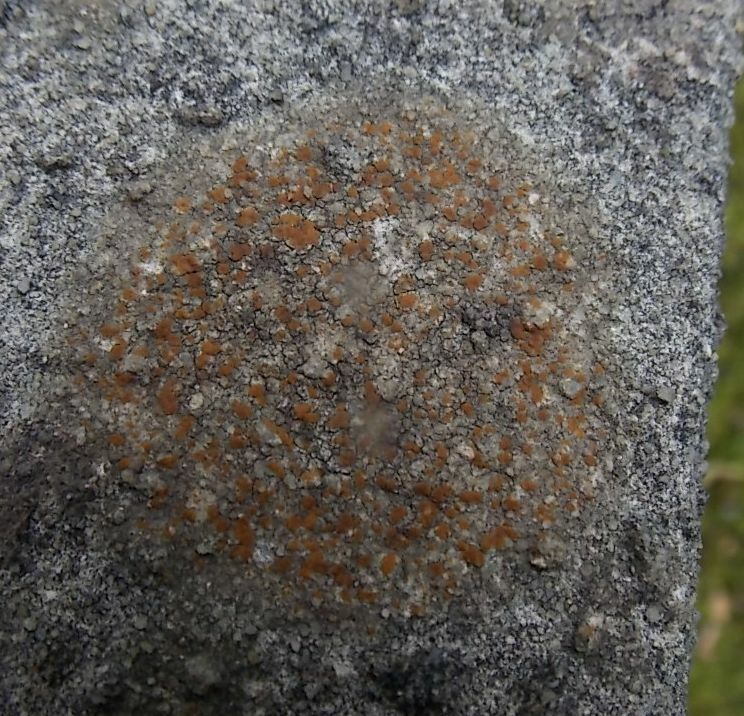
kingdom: Fungi
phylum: Ascomycota
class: Lecanoromycetes
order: Lecanorales
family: Psoraceae
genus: Protoblastenia
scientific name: Protoblastenia rupestris
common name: Chewing gum lichen
